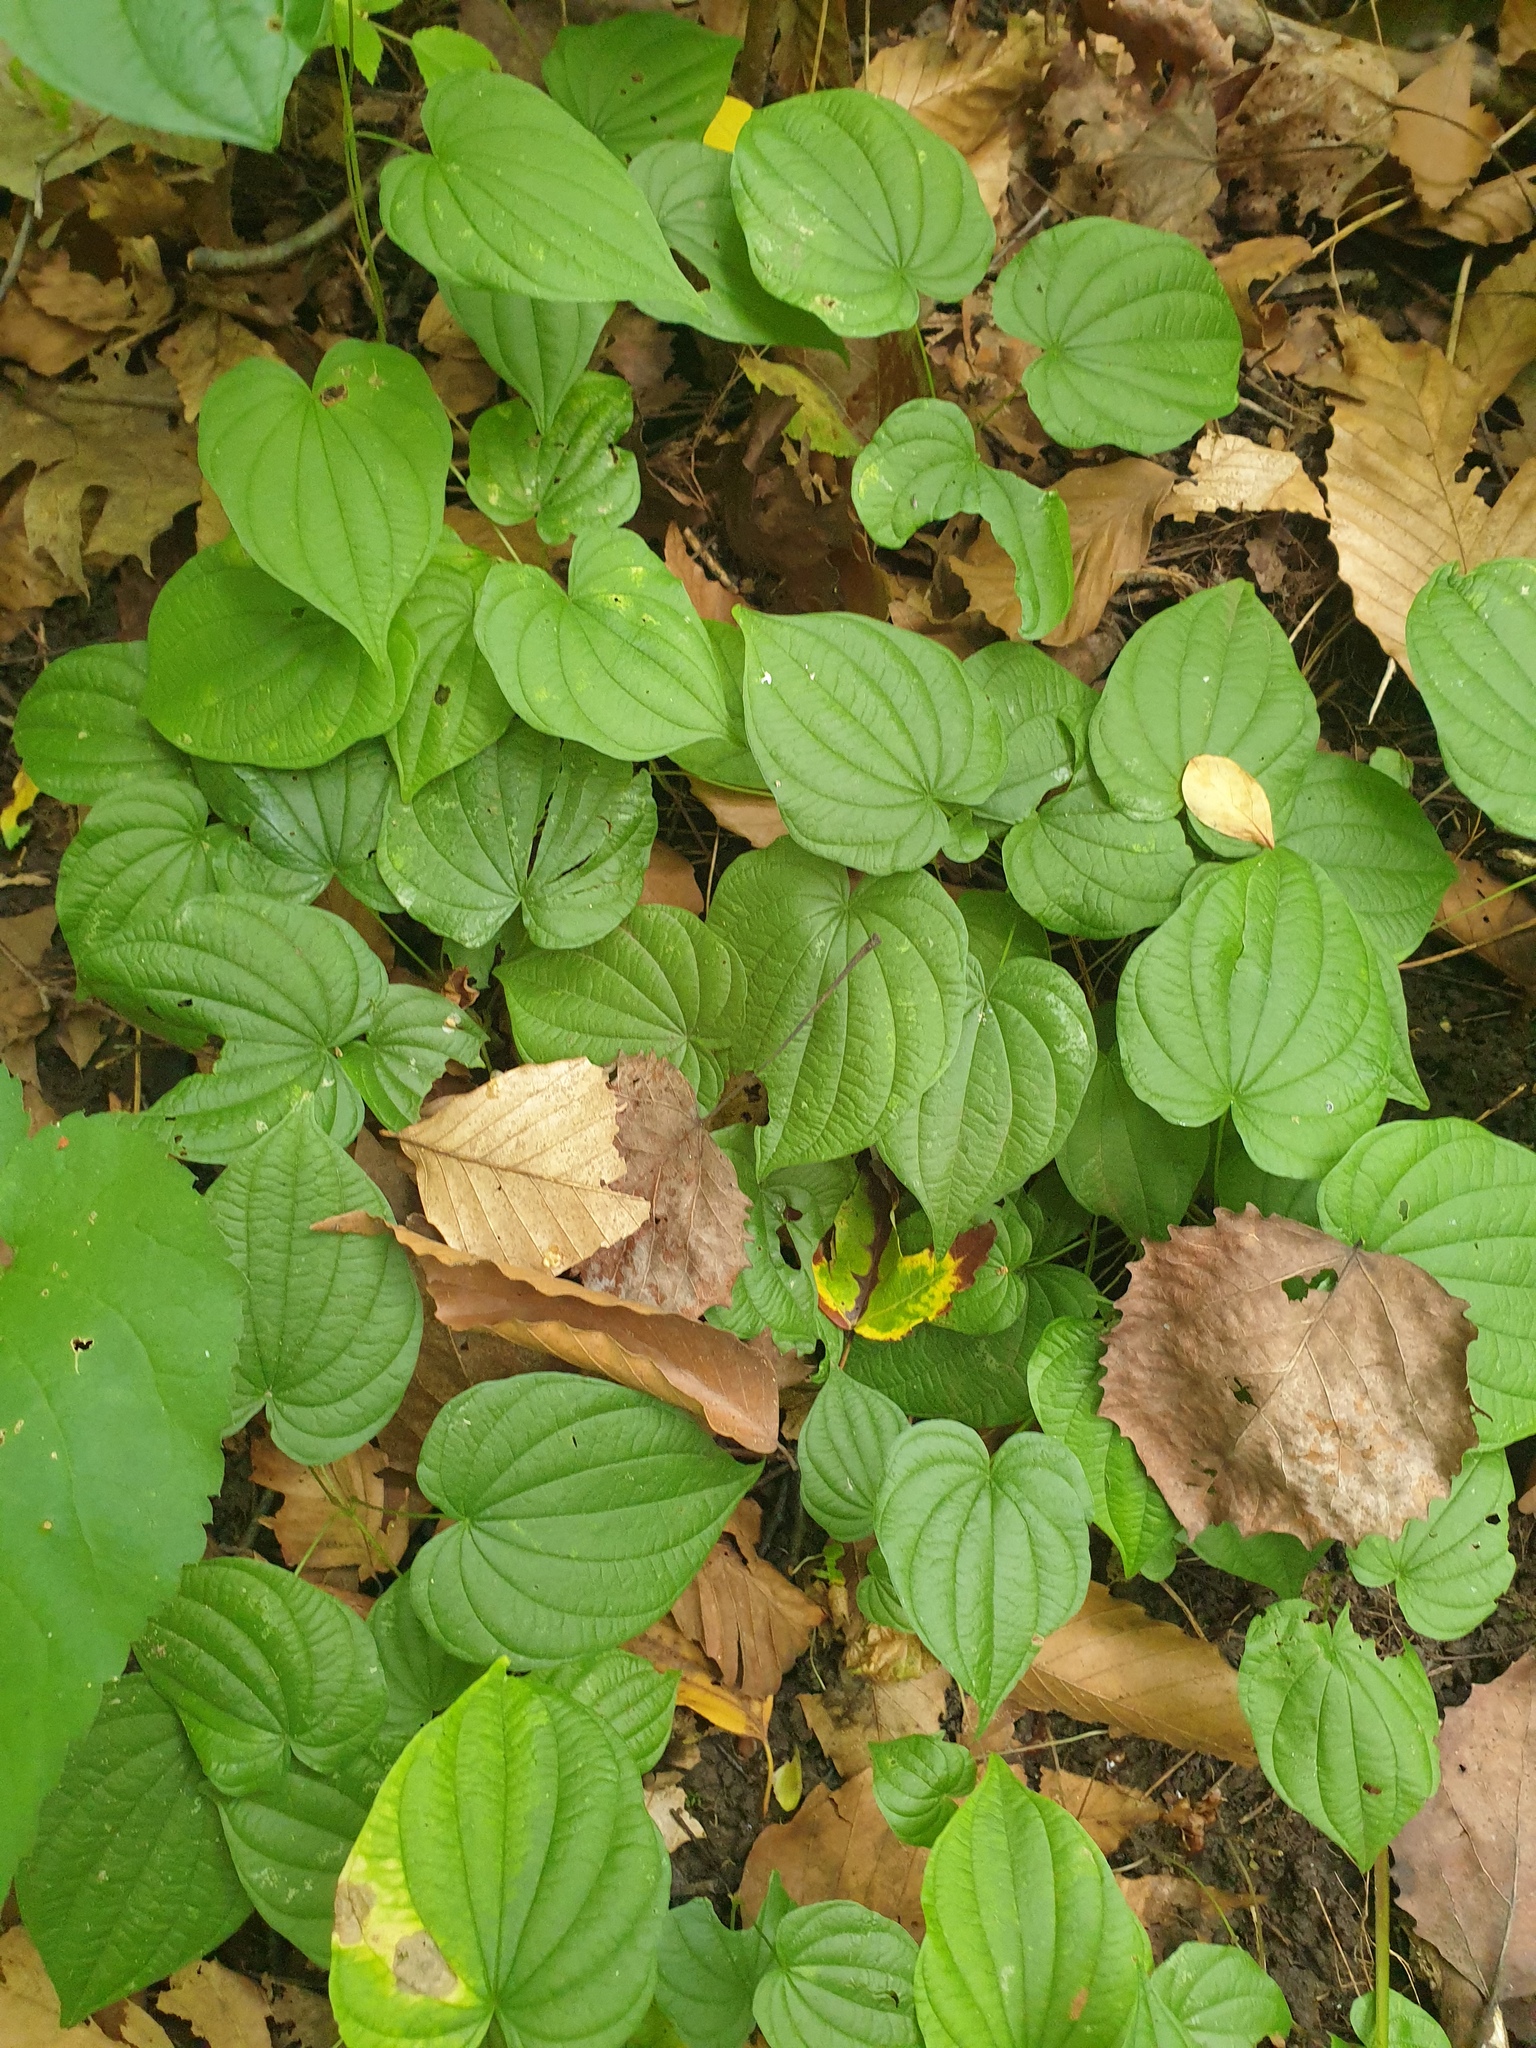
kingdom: Plantae
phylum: Tracheophyta
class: Liliopsida
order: Dioscoreales
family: Dioscoreaceae
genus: Dioscorea
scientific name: Dioscorea villosa
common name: Wild yam
